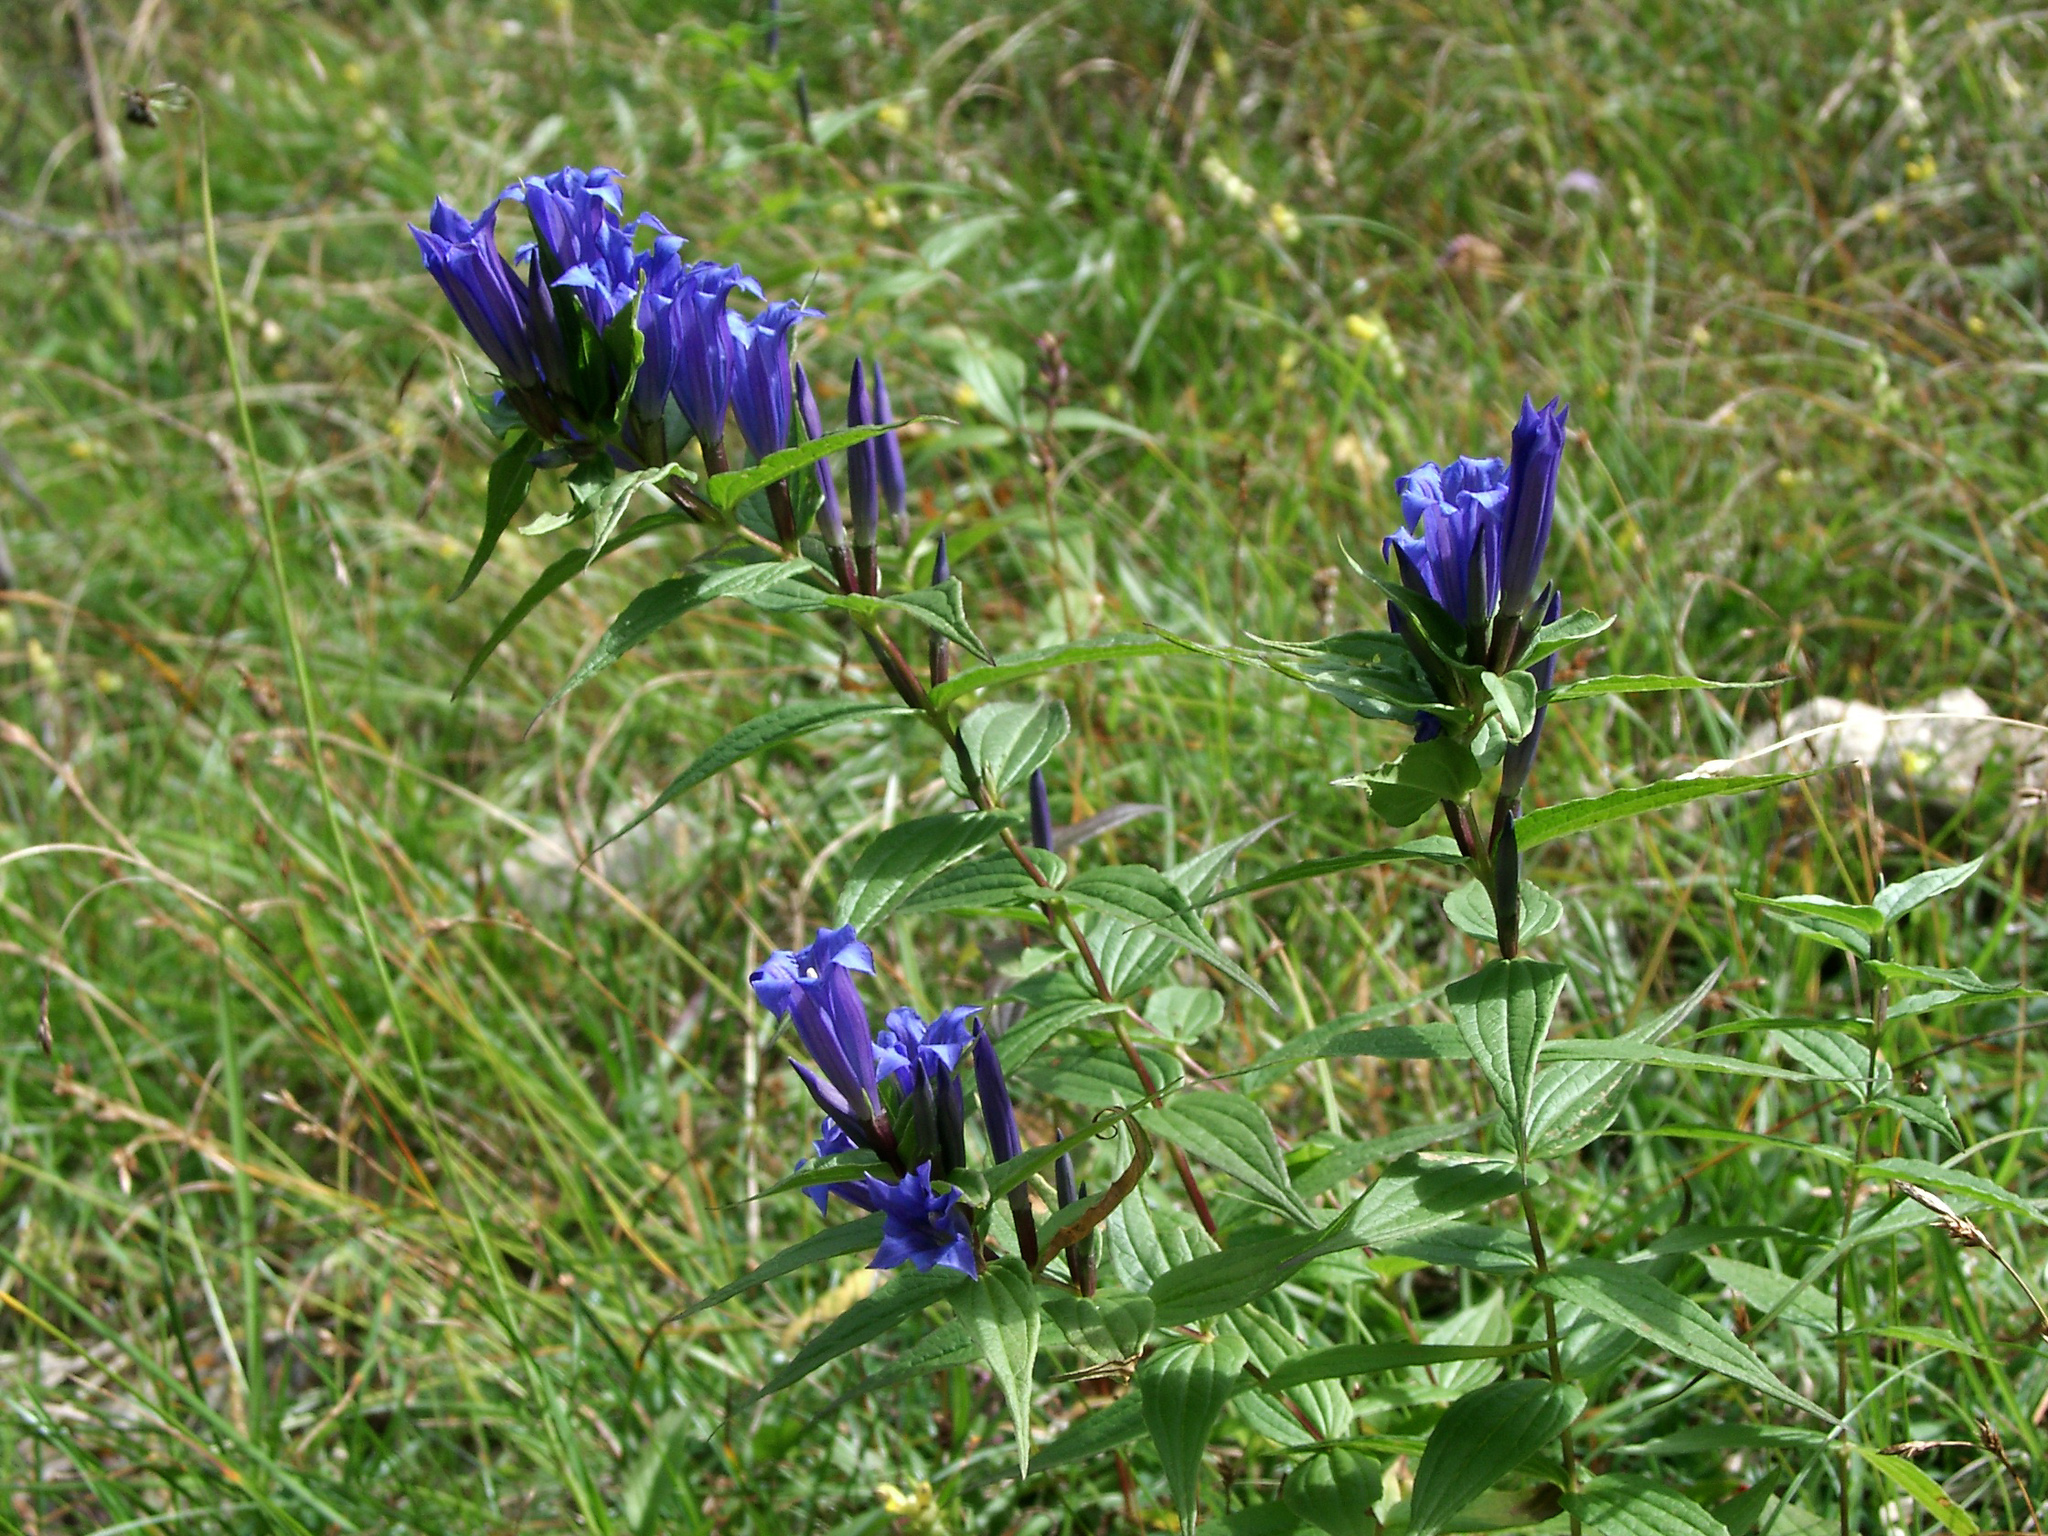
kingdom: Plantae
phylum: Tracheophyta
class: Magnoliopsida
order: Gentianales
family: Gentianaceae
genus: Gentiana
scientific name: Gentiana asclepiadea
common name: Willow gentian
